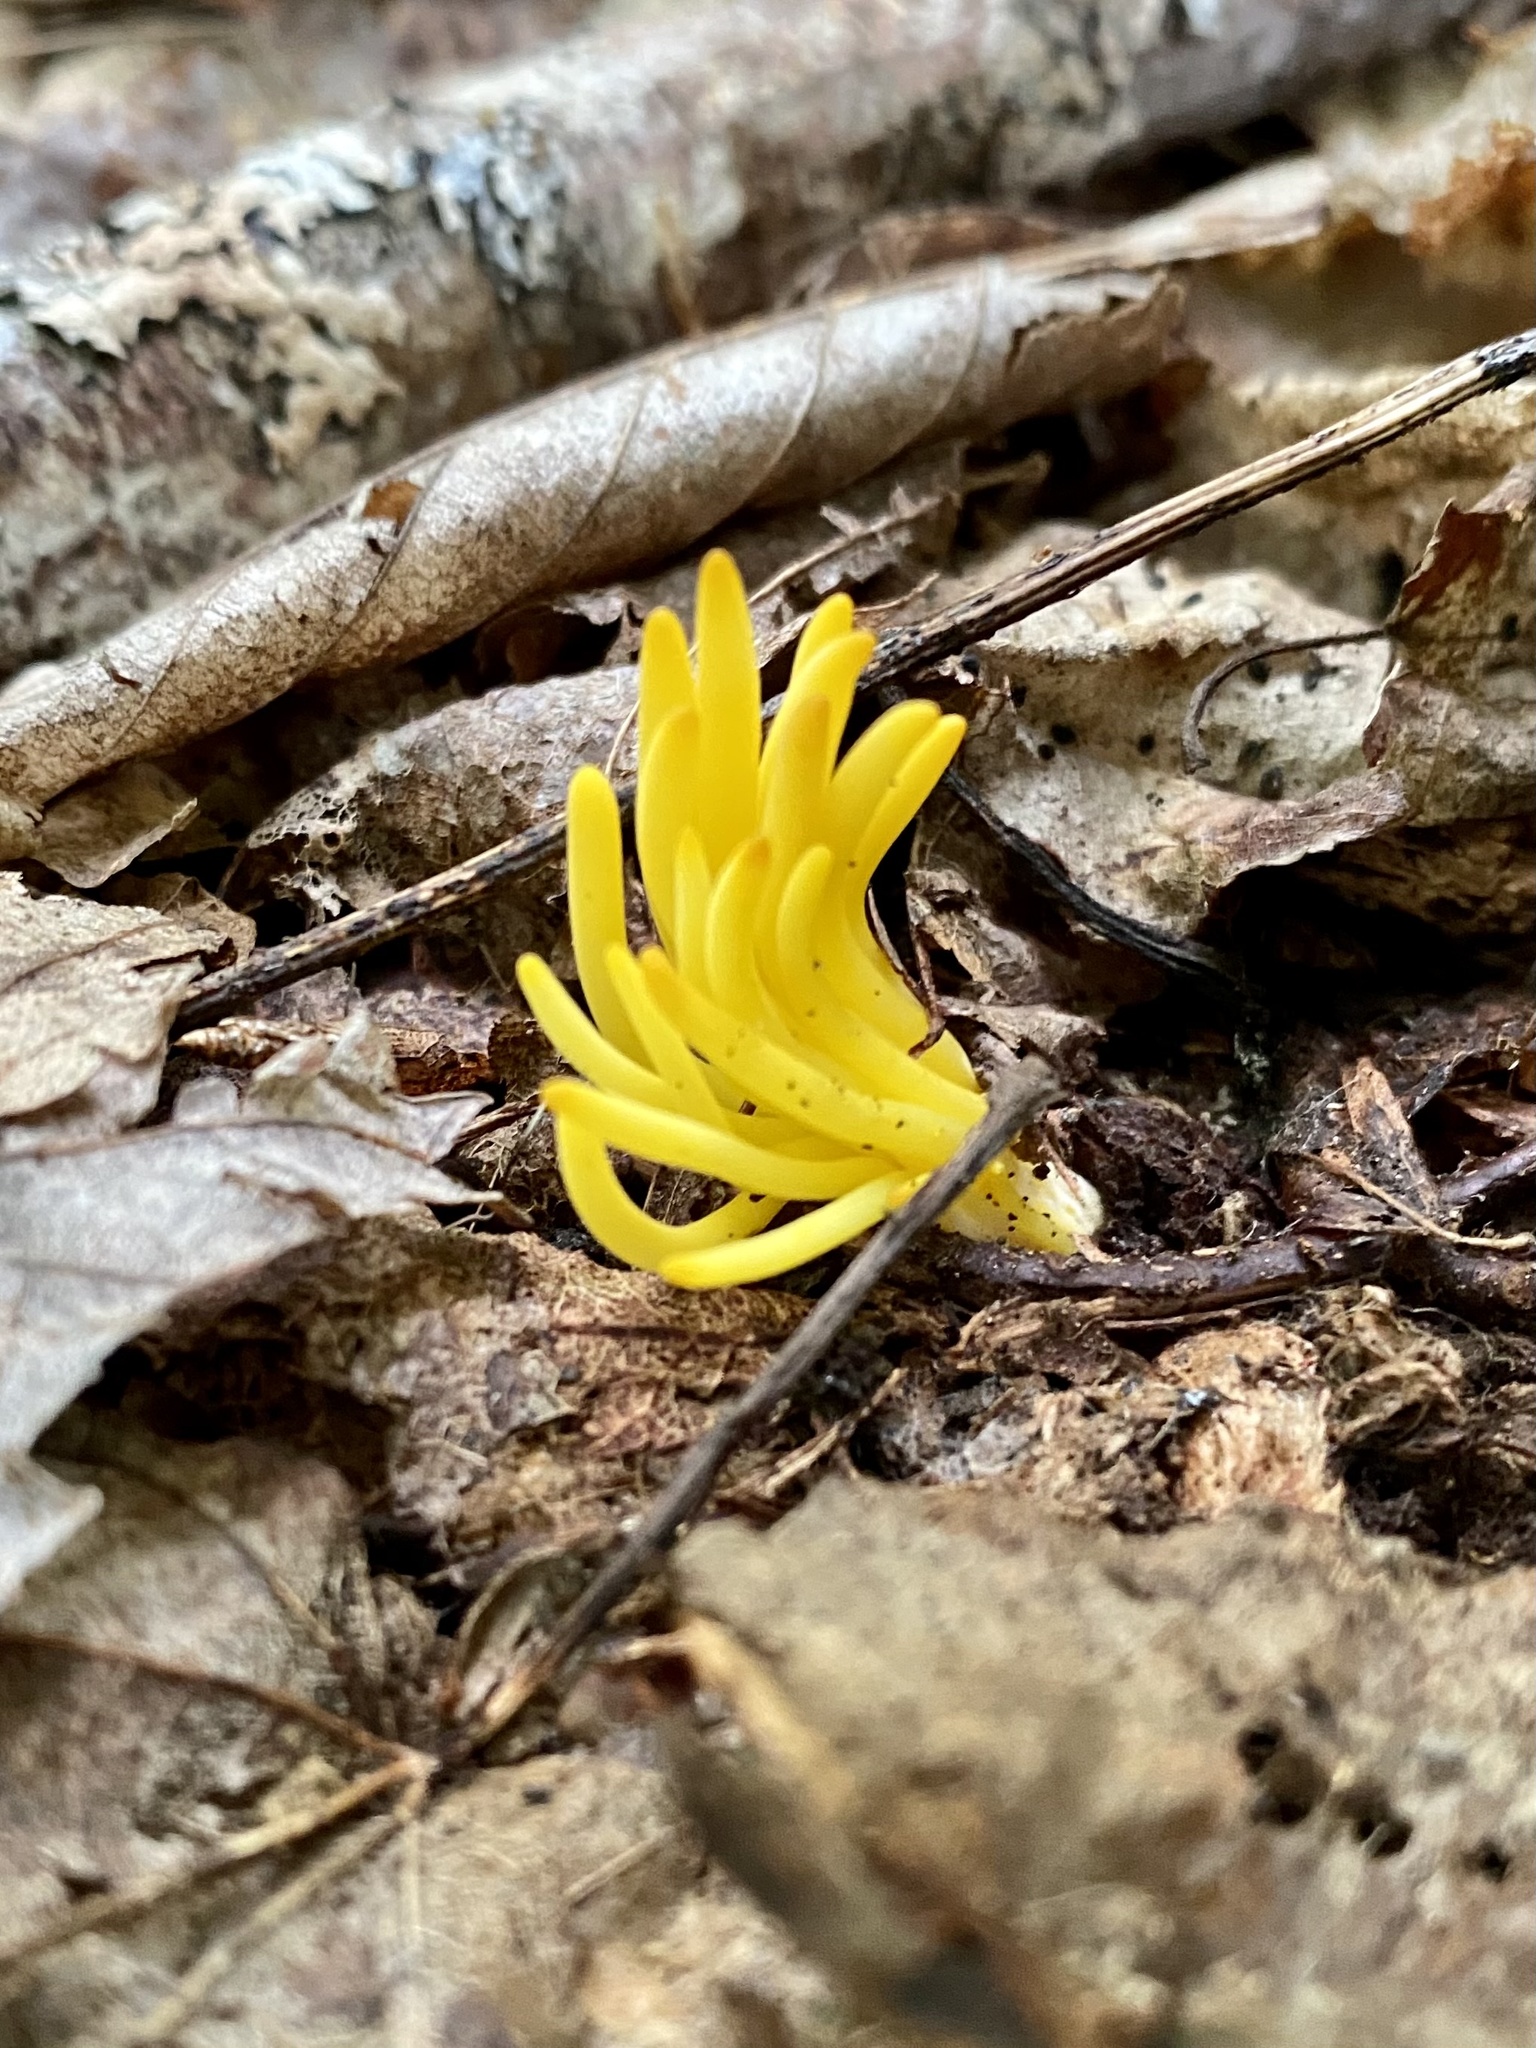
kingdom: Fungi
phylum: Basidiomycota
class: Agaricomycetes
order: Agaricales
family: Clavariaceae
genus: Clavulinopsis
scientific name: Clavulinopsis fusiformis
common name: Golden spindles
